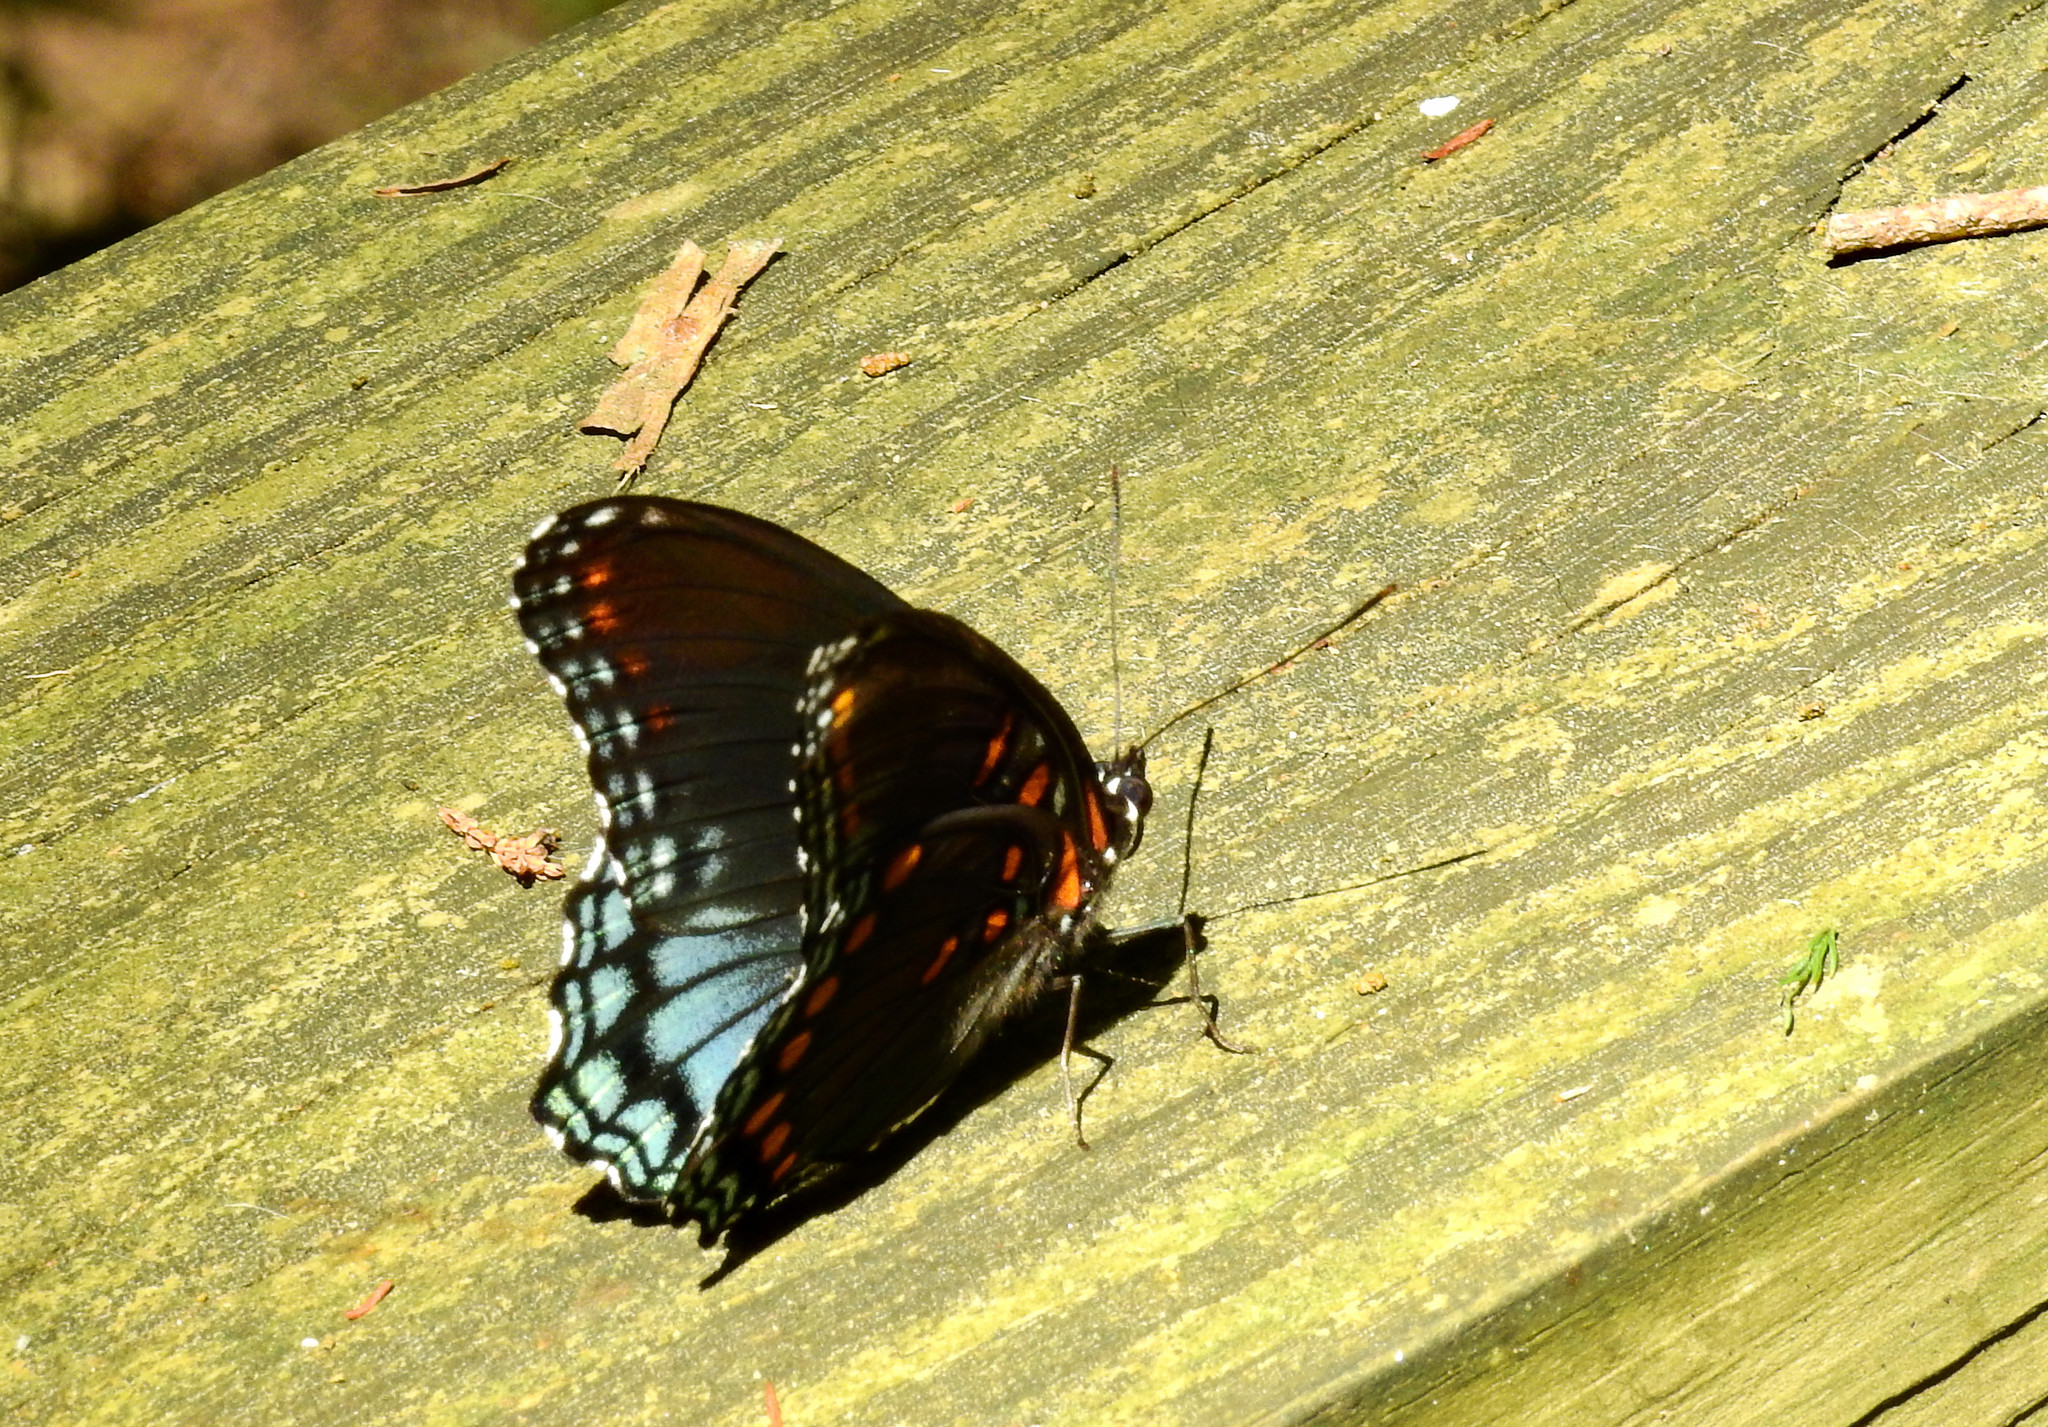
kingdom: Animalia
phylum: Arthropoda
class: Insecta
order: Lepidoptera
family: Nymphalidae
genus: Limenitis
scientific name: Limenitis astyanax
